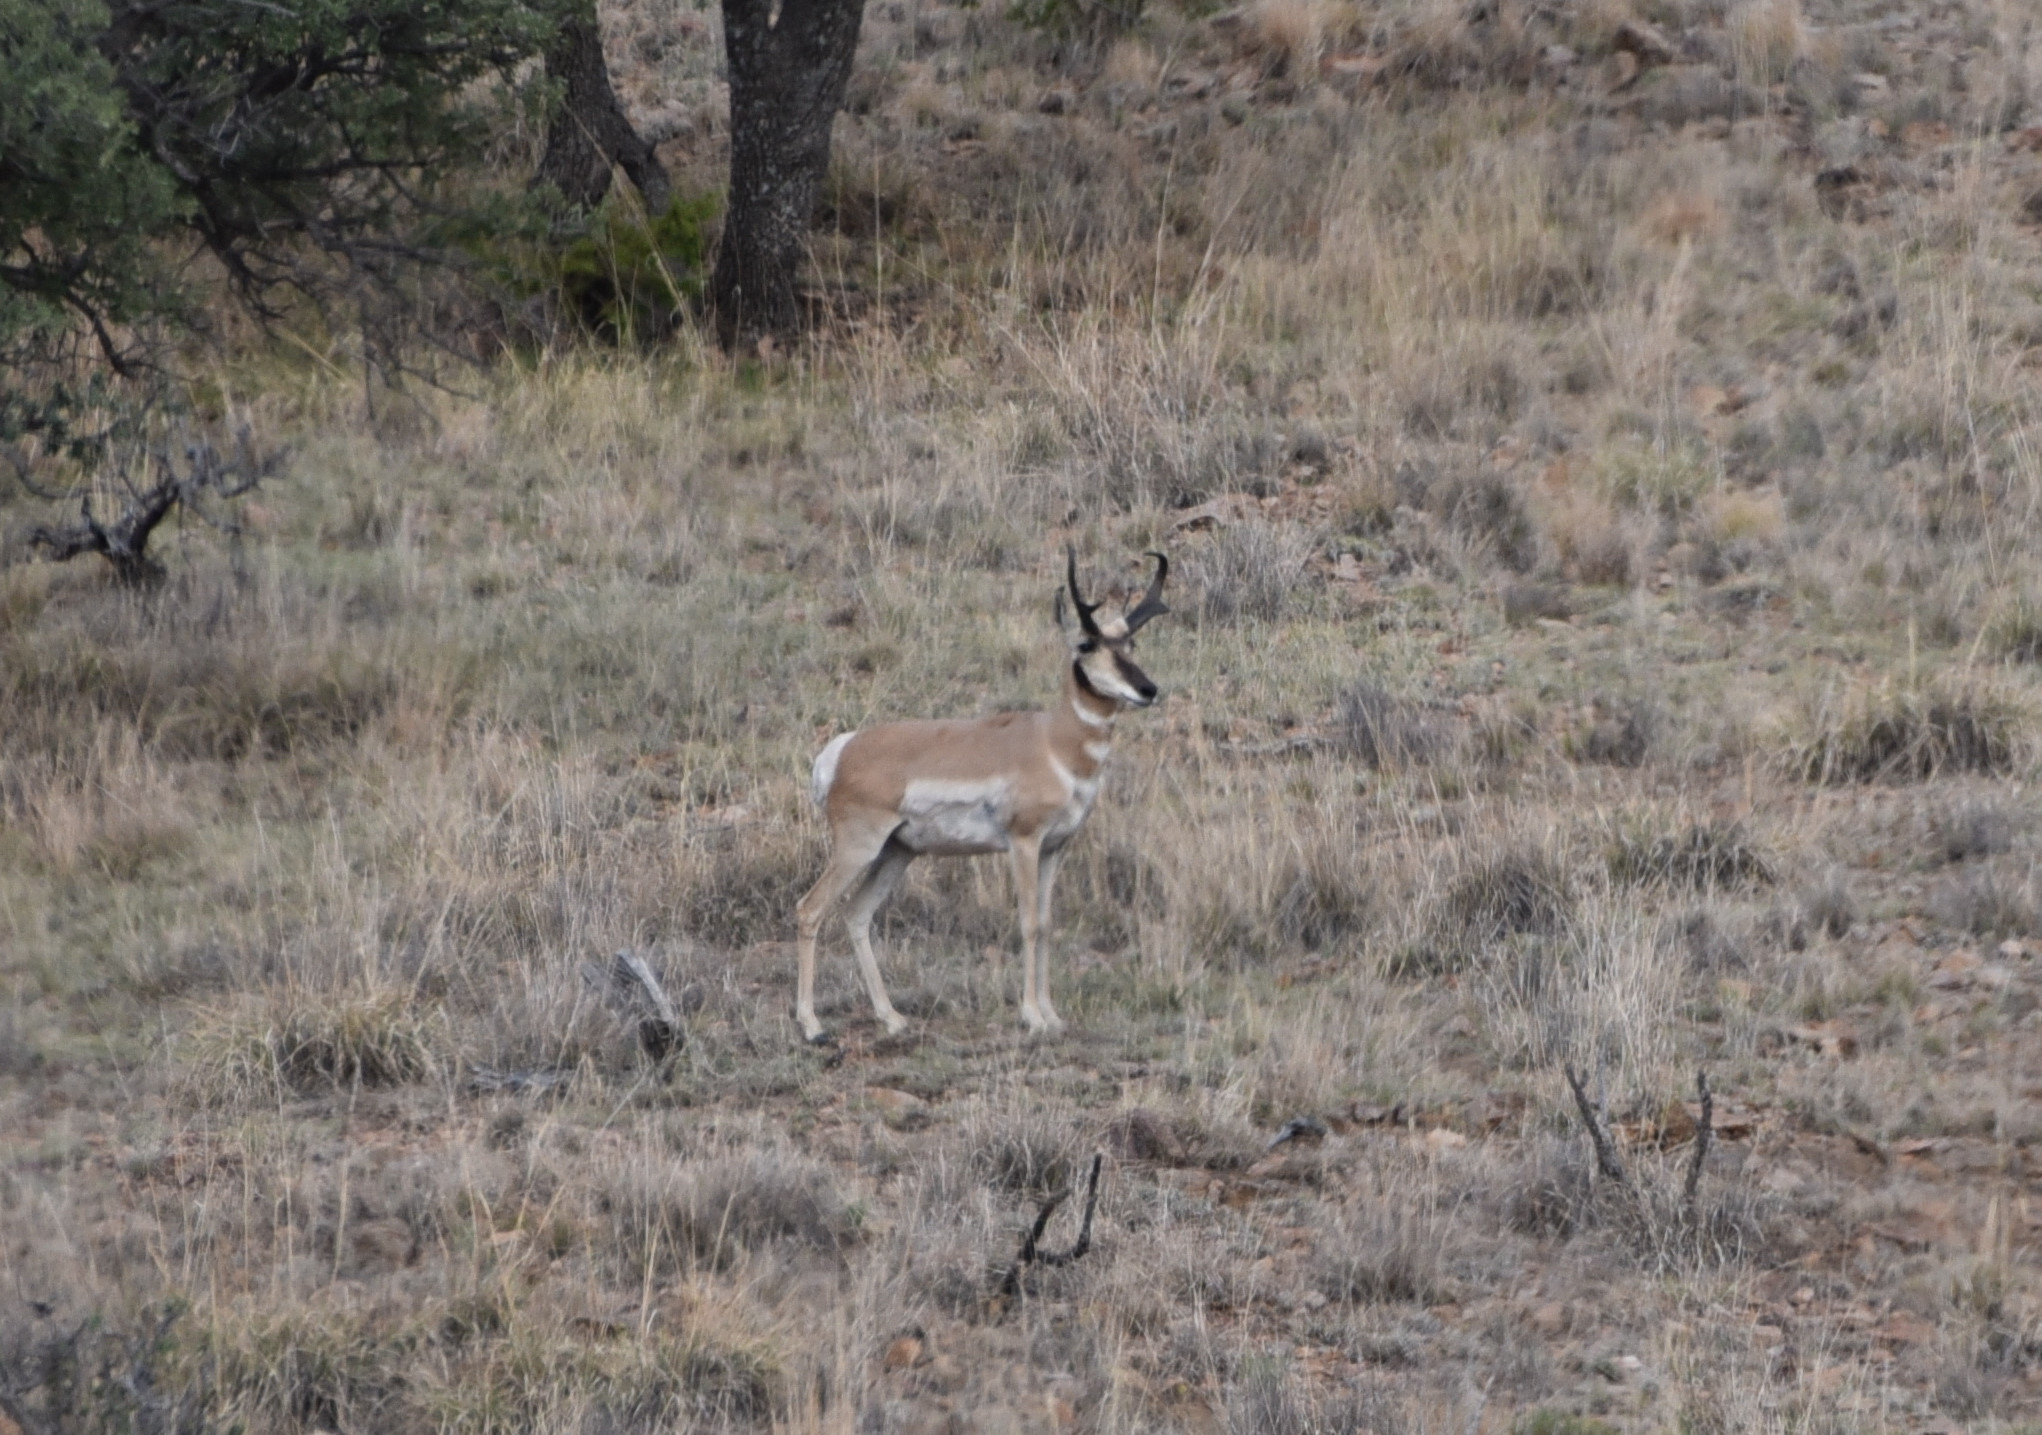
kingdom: Animalia
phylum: Chordata
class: Mammalia
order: Artiodactyla
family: Antilocapridae
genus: Antilocapra
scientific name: Antilocapra americana
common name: Pronghorn
